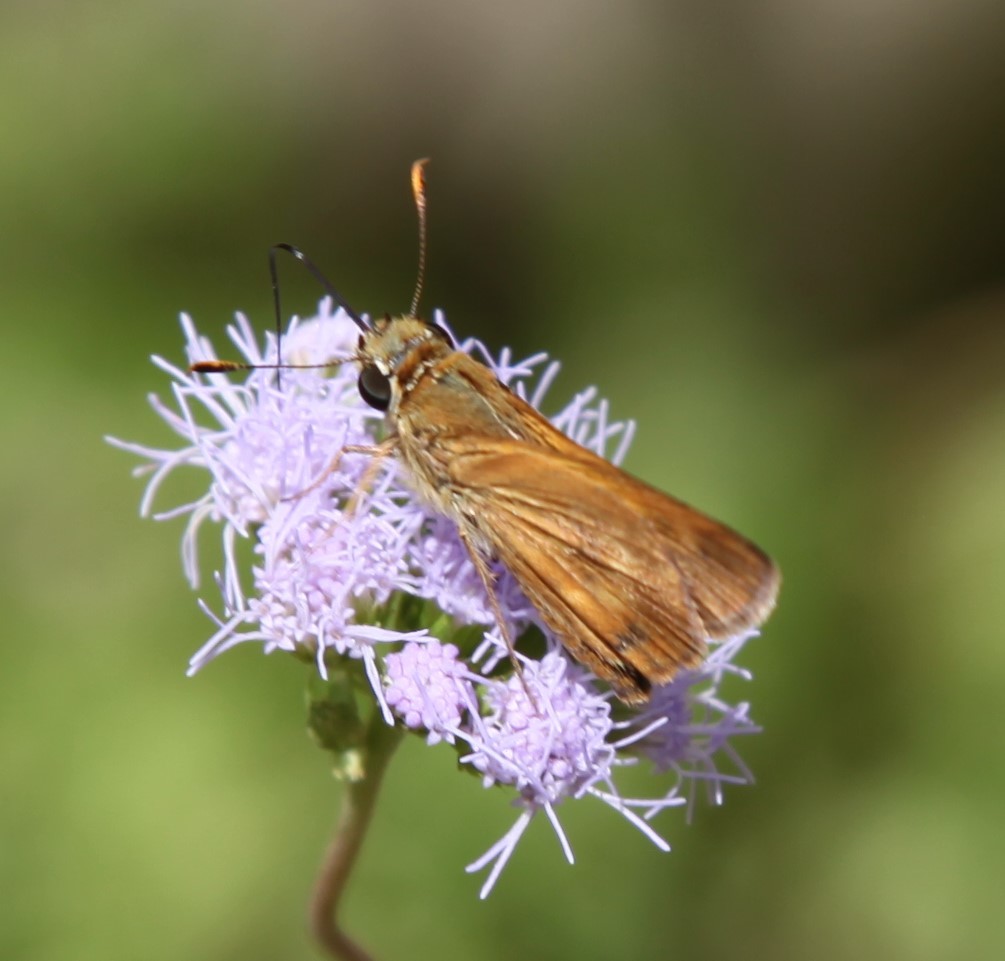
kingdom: Animalia
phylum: Arthropoda
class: Insecta
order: Lepidoptera
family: Hesperiidae
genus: Polites
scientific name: Polites otho
